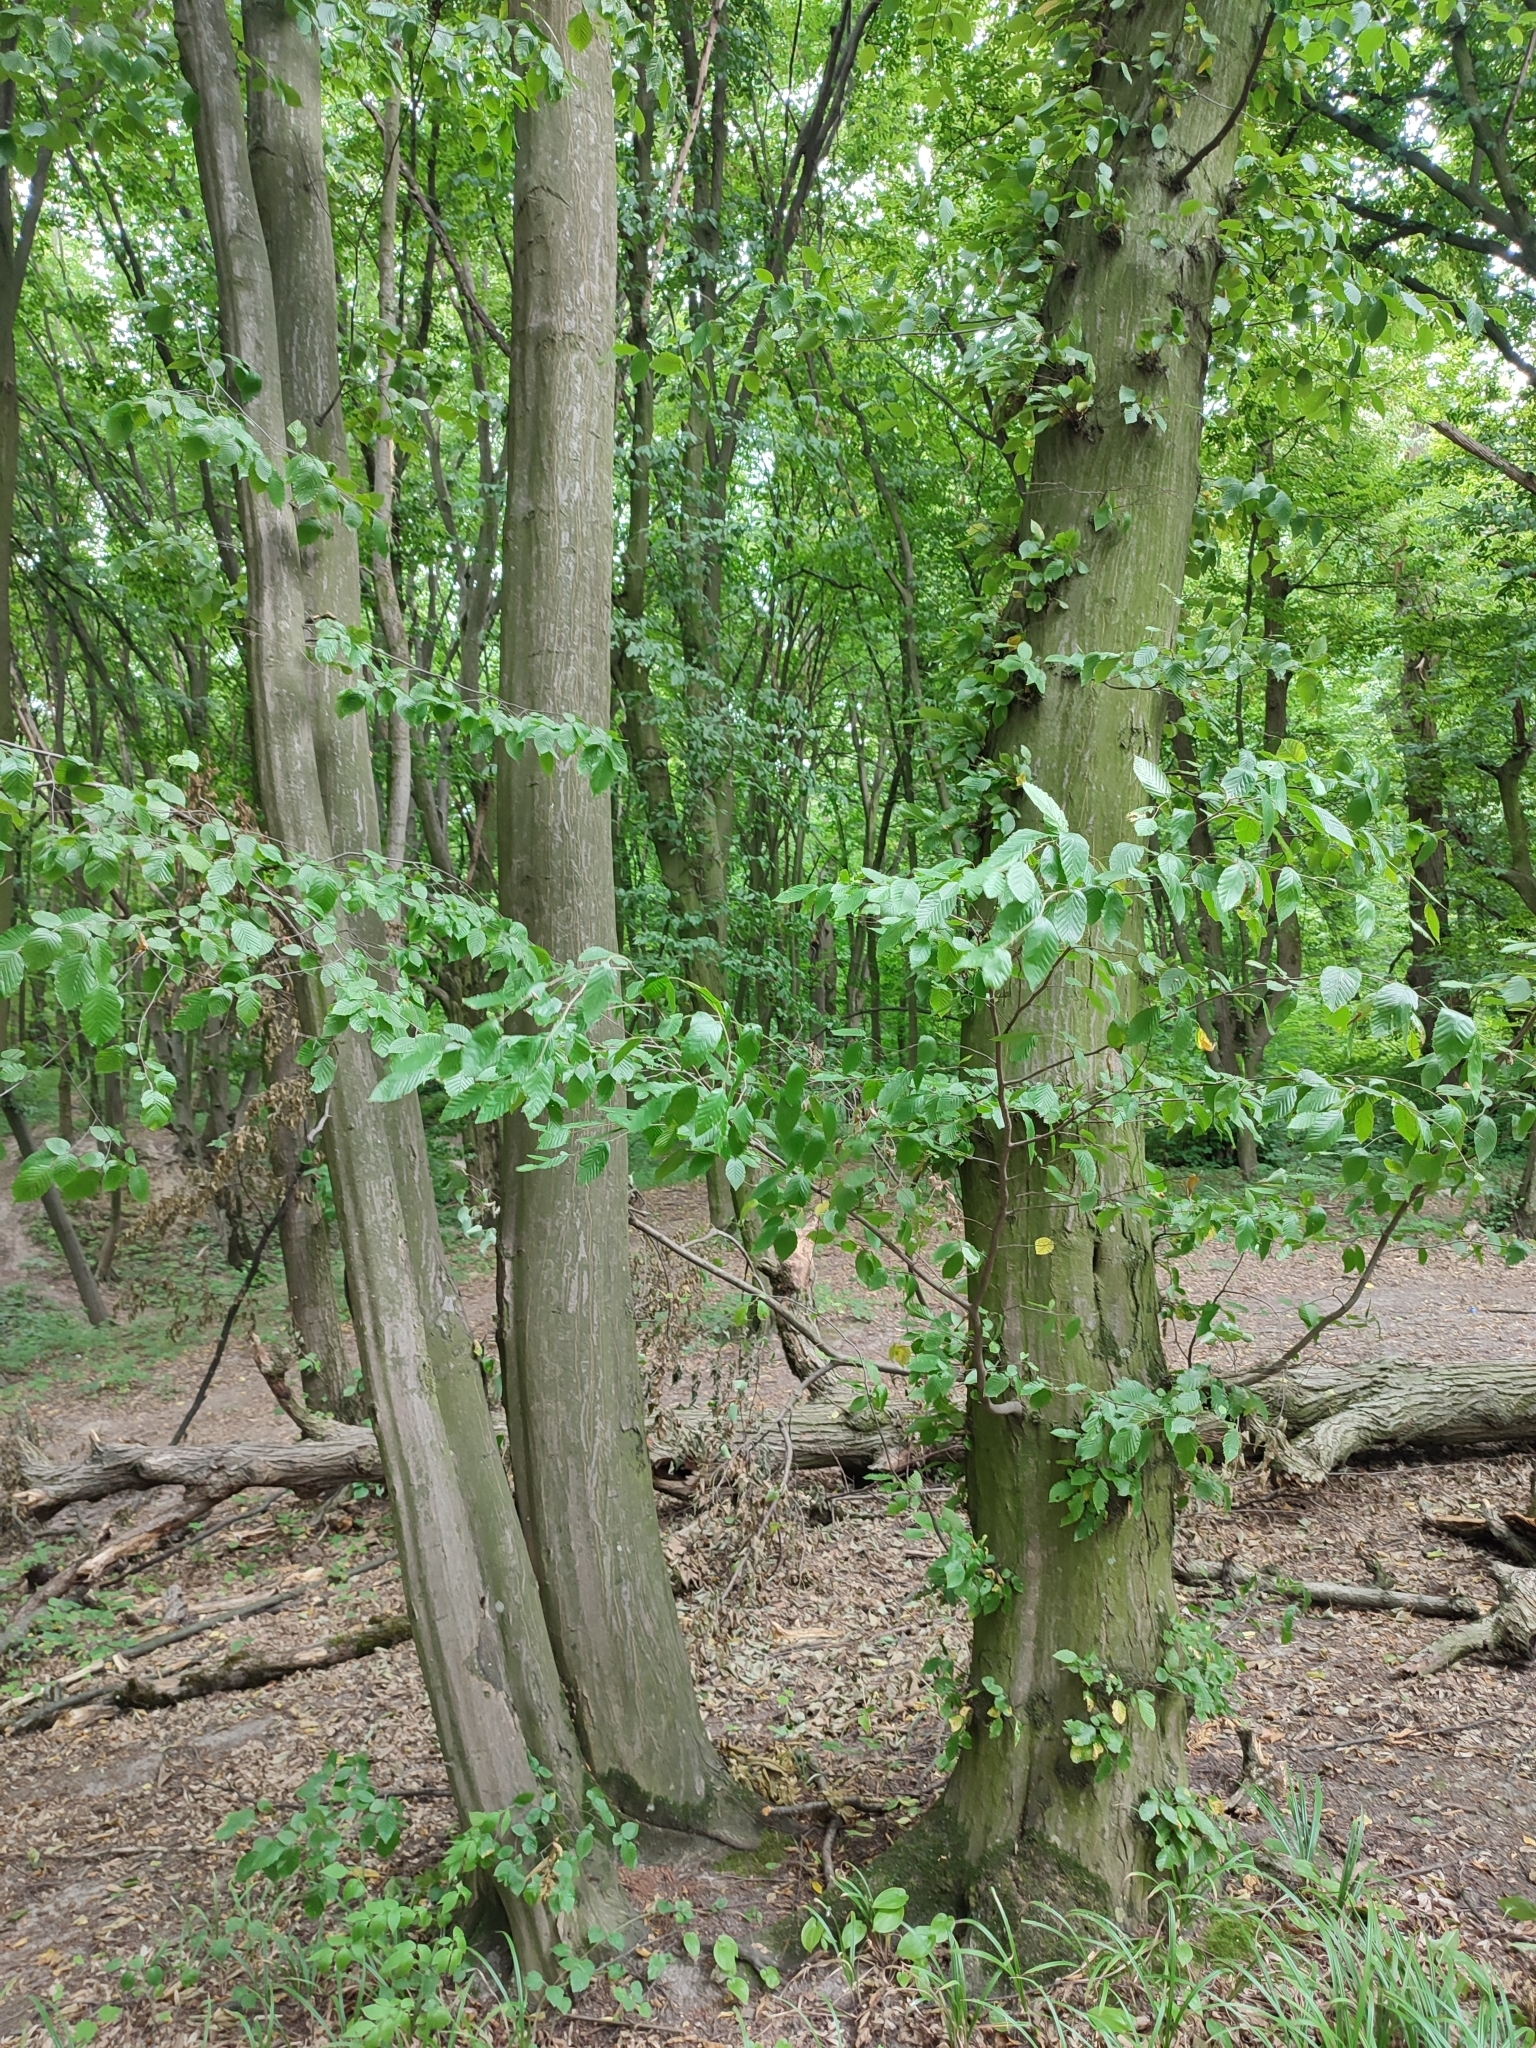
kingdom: Plantae
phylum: Tracheophyta
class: Magnoliopsida
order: Fagales
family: Betulaceae
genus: Carpinus
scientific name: Carpinus betulus
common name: Hornbeam
